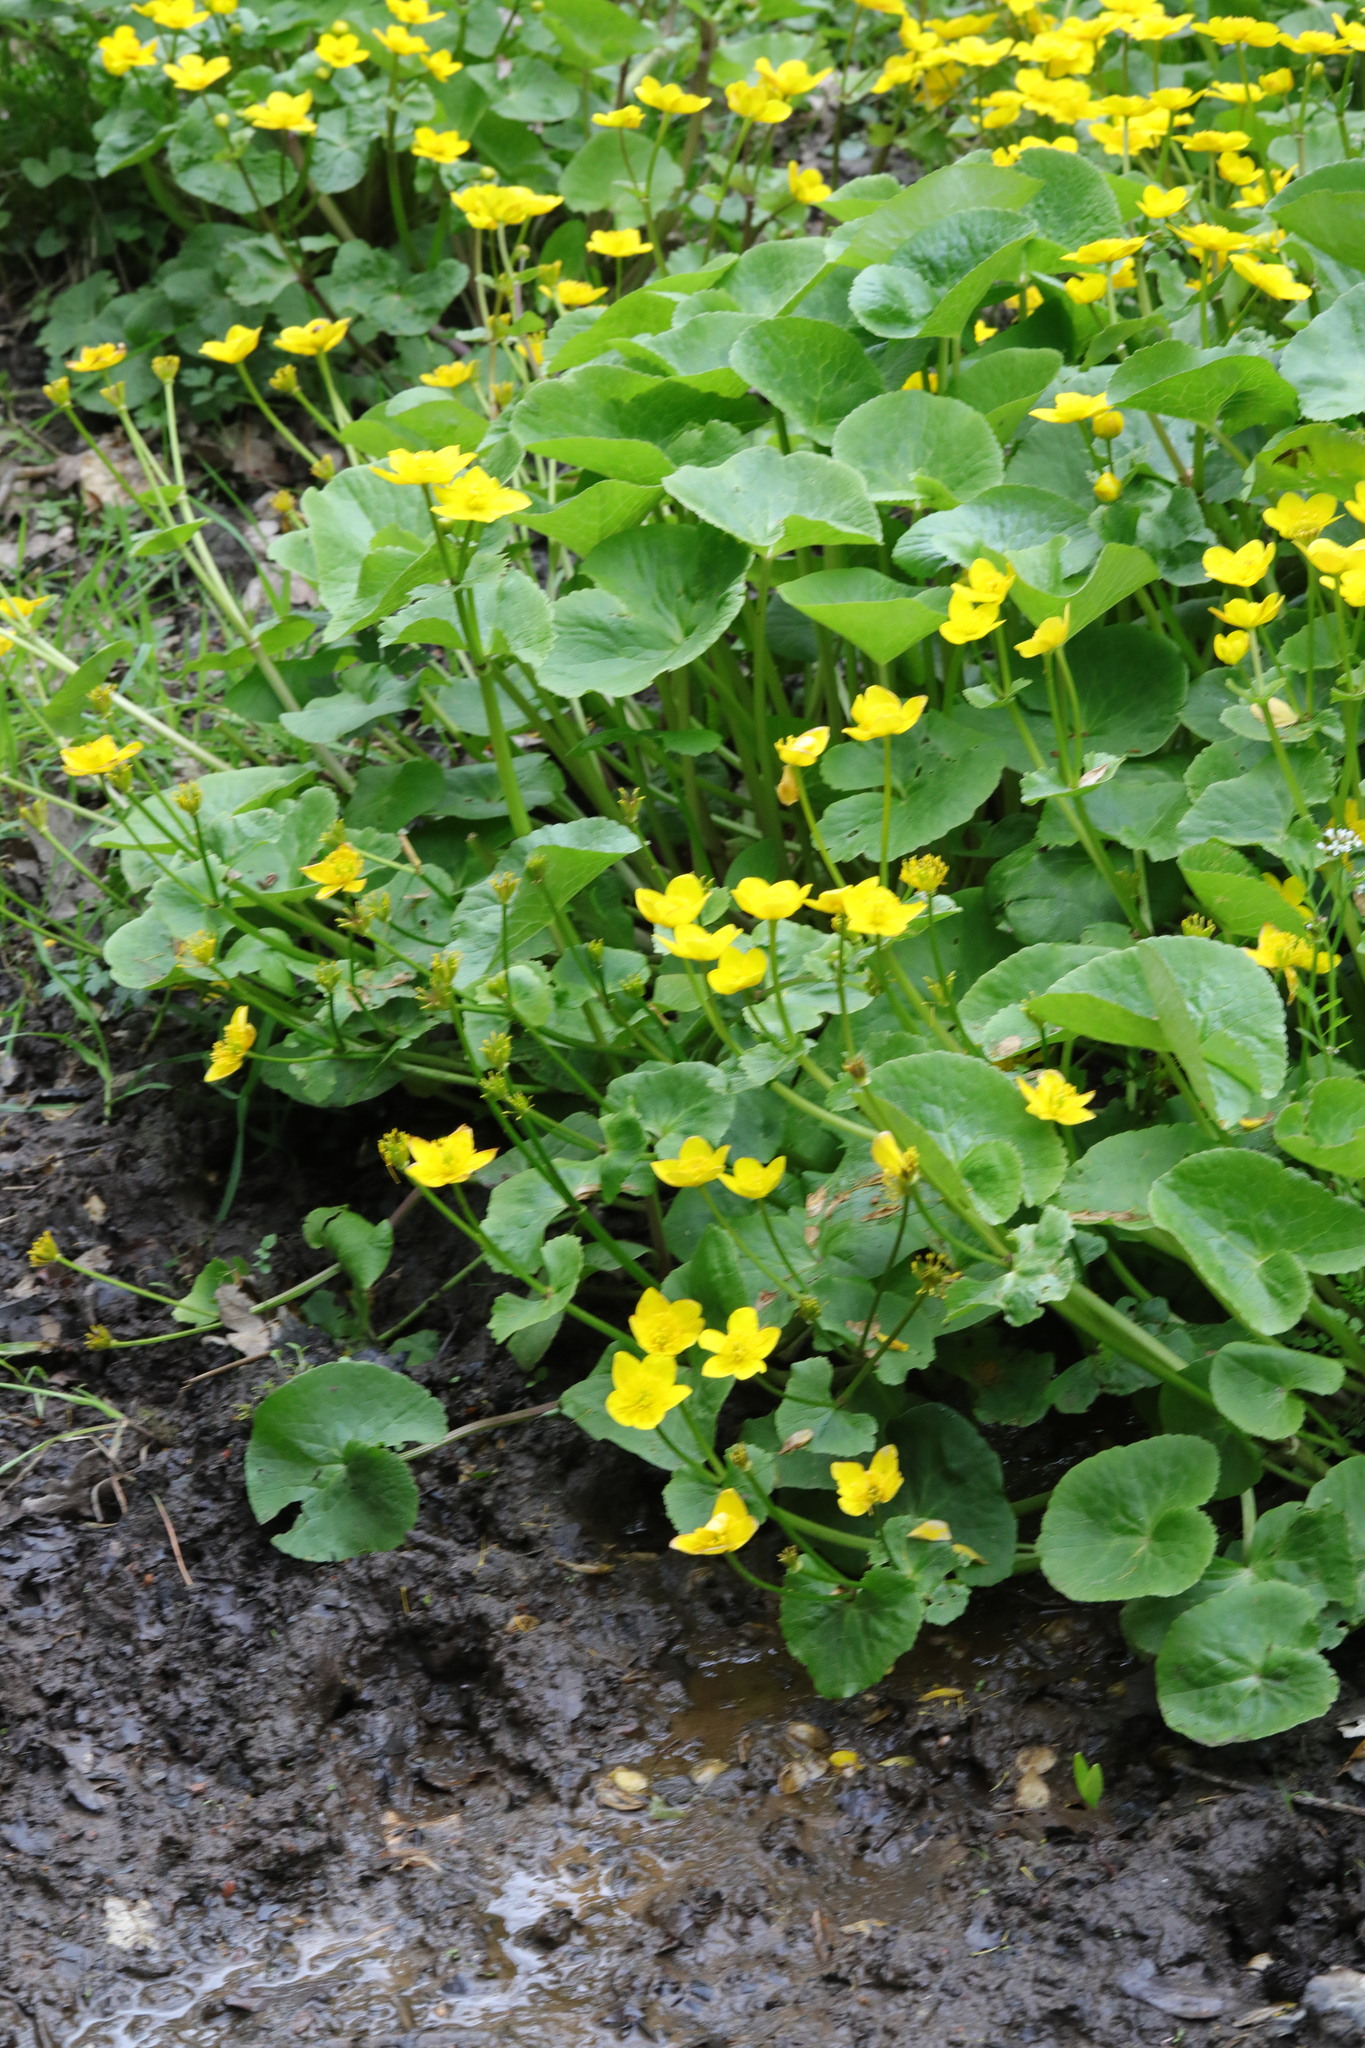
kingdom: Plantae
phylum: Tracheophyta
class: Magnoliopsida
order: Ranunculales
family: Ranunculaceae
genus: Caltha
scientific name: Caltha palustris
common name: Marsh marigold
